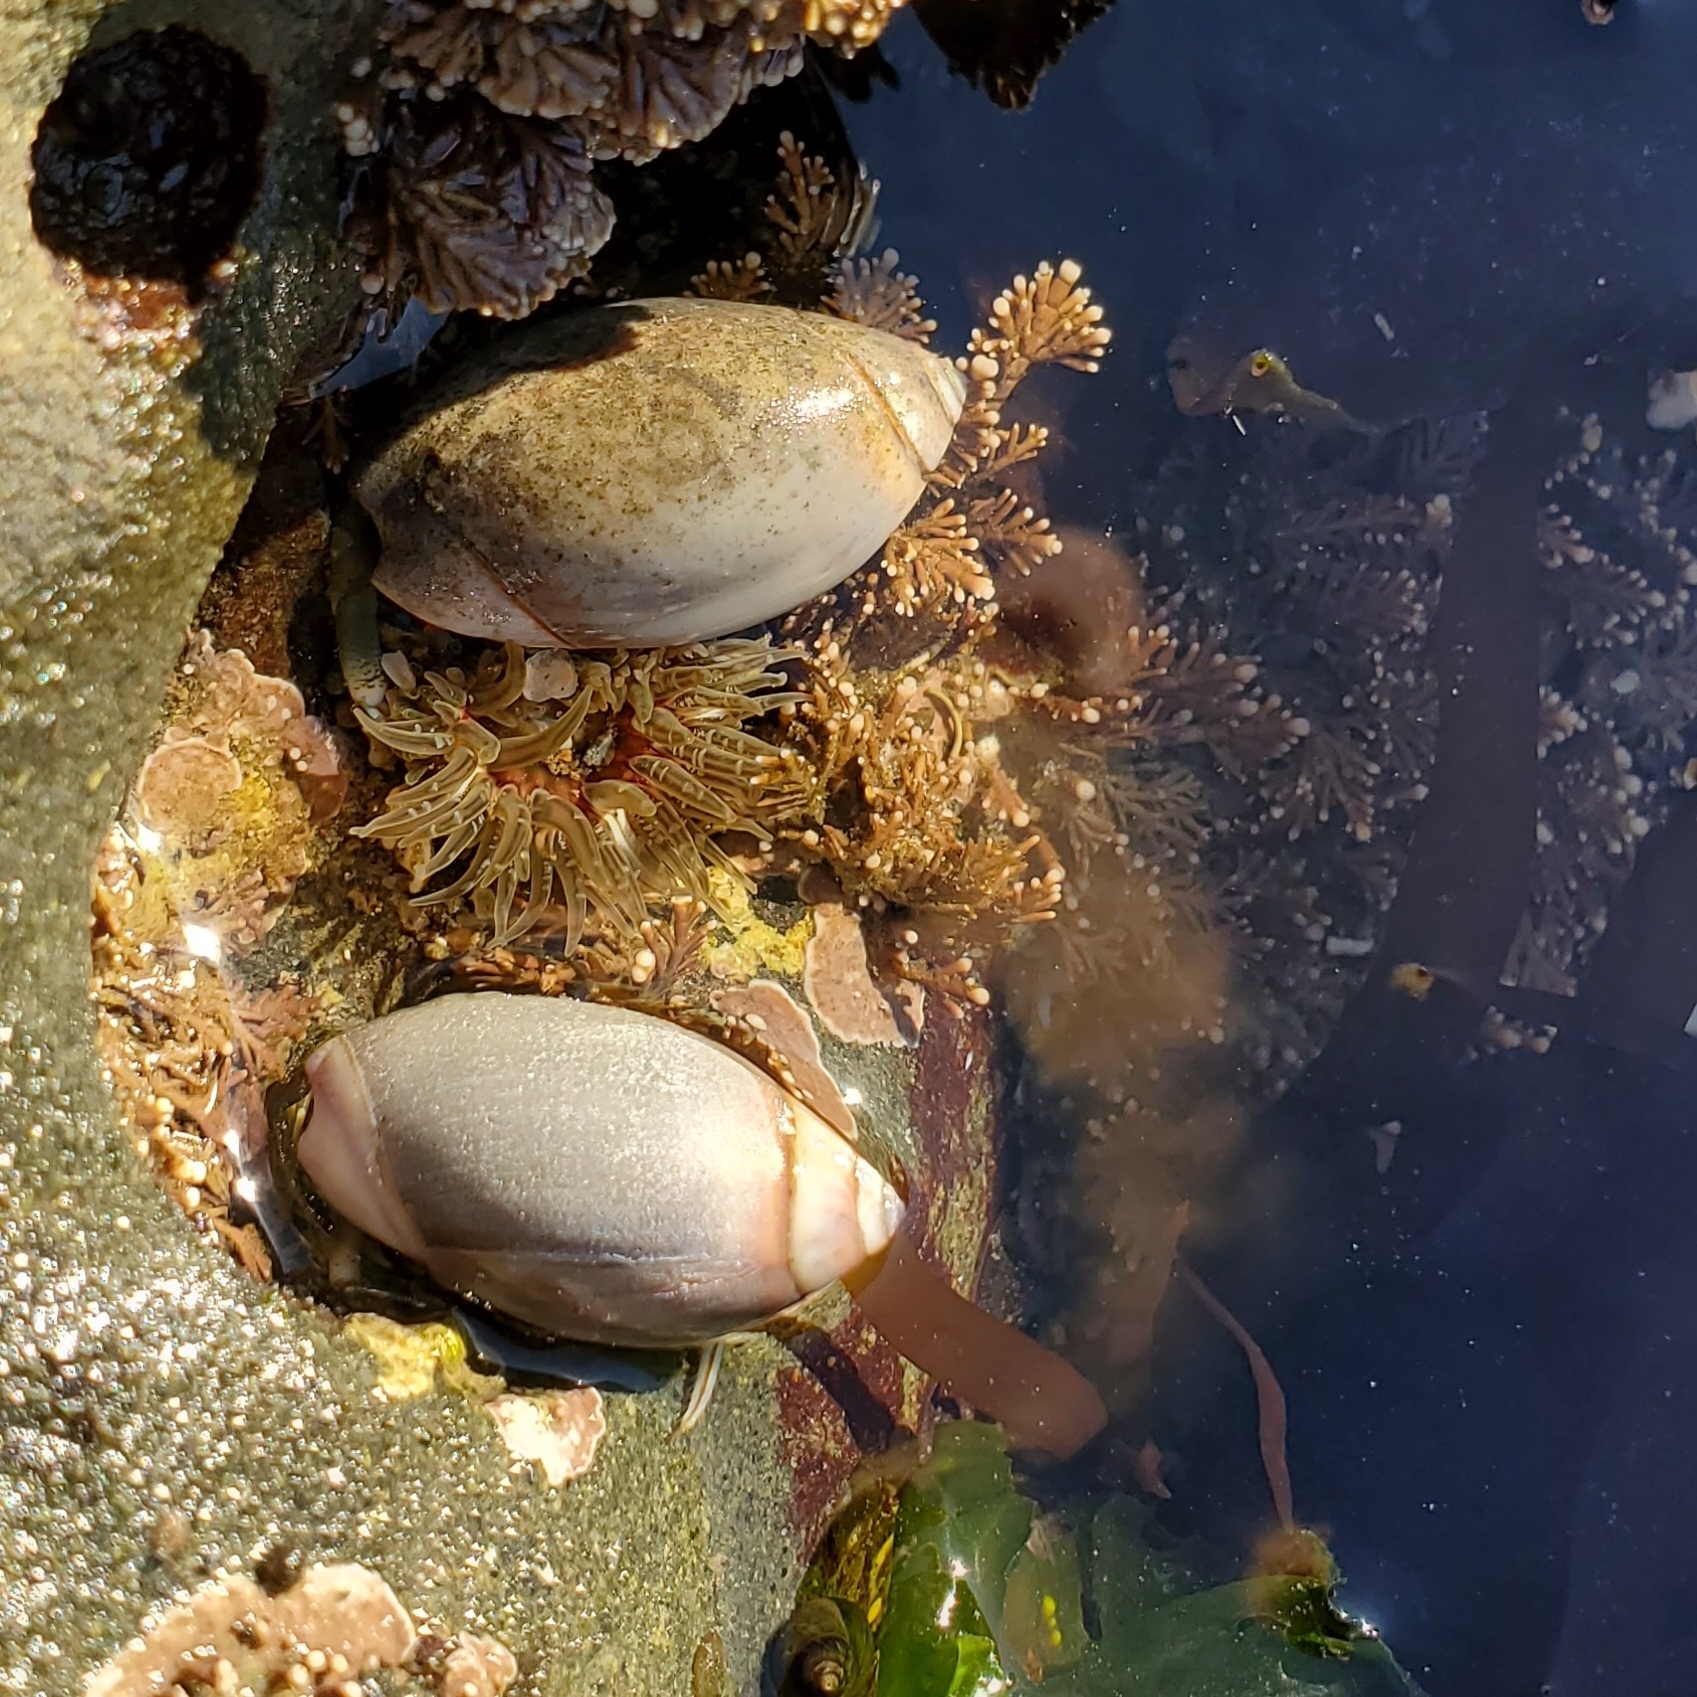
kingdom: Animalia
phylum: Mollusca
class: Gastropoda
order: Neogastropoda
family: Olividae
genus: Callianax
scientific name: Callianax biplicata
